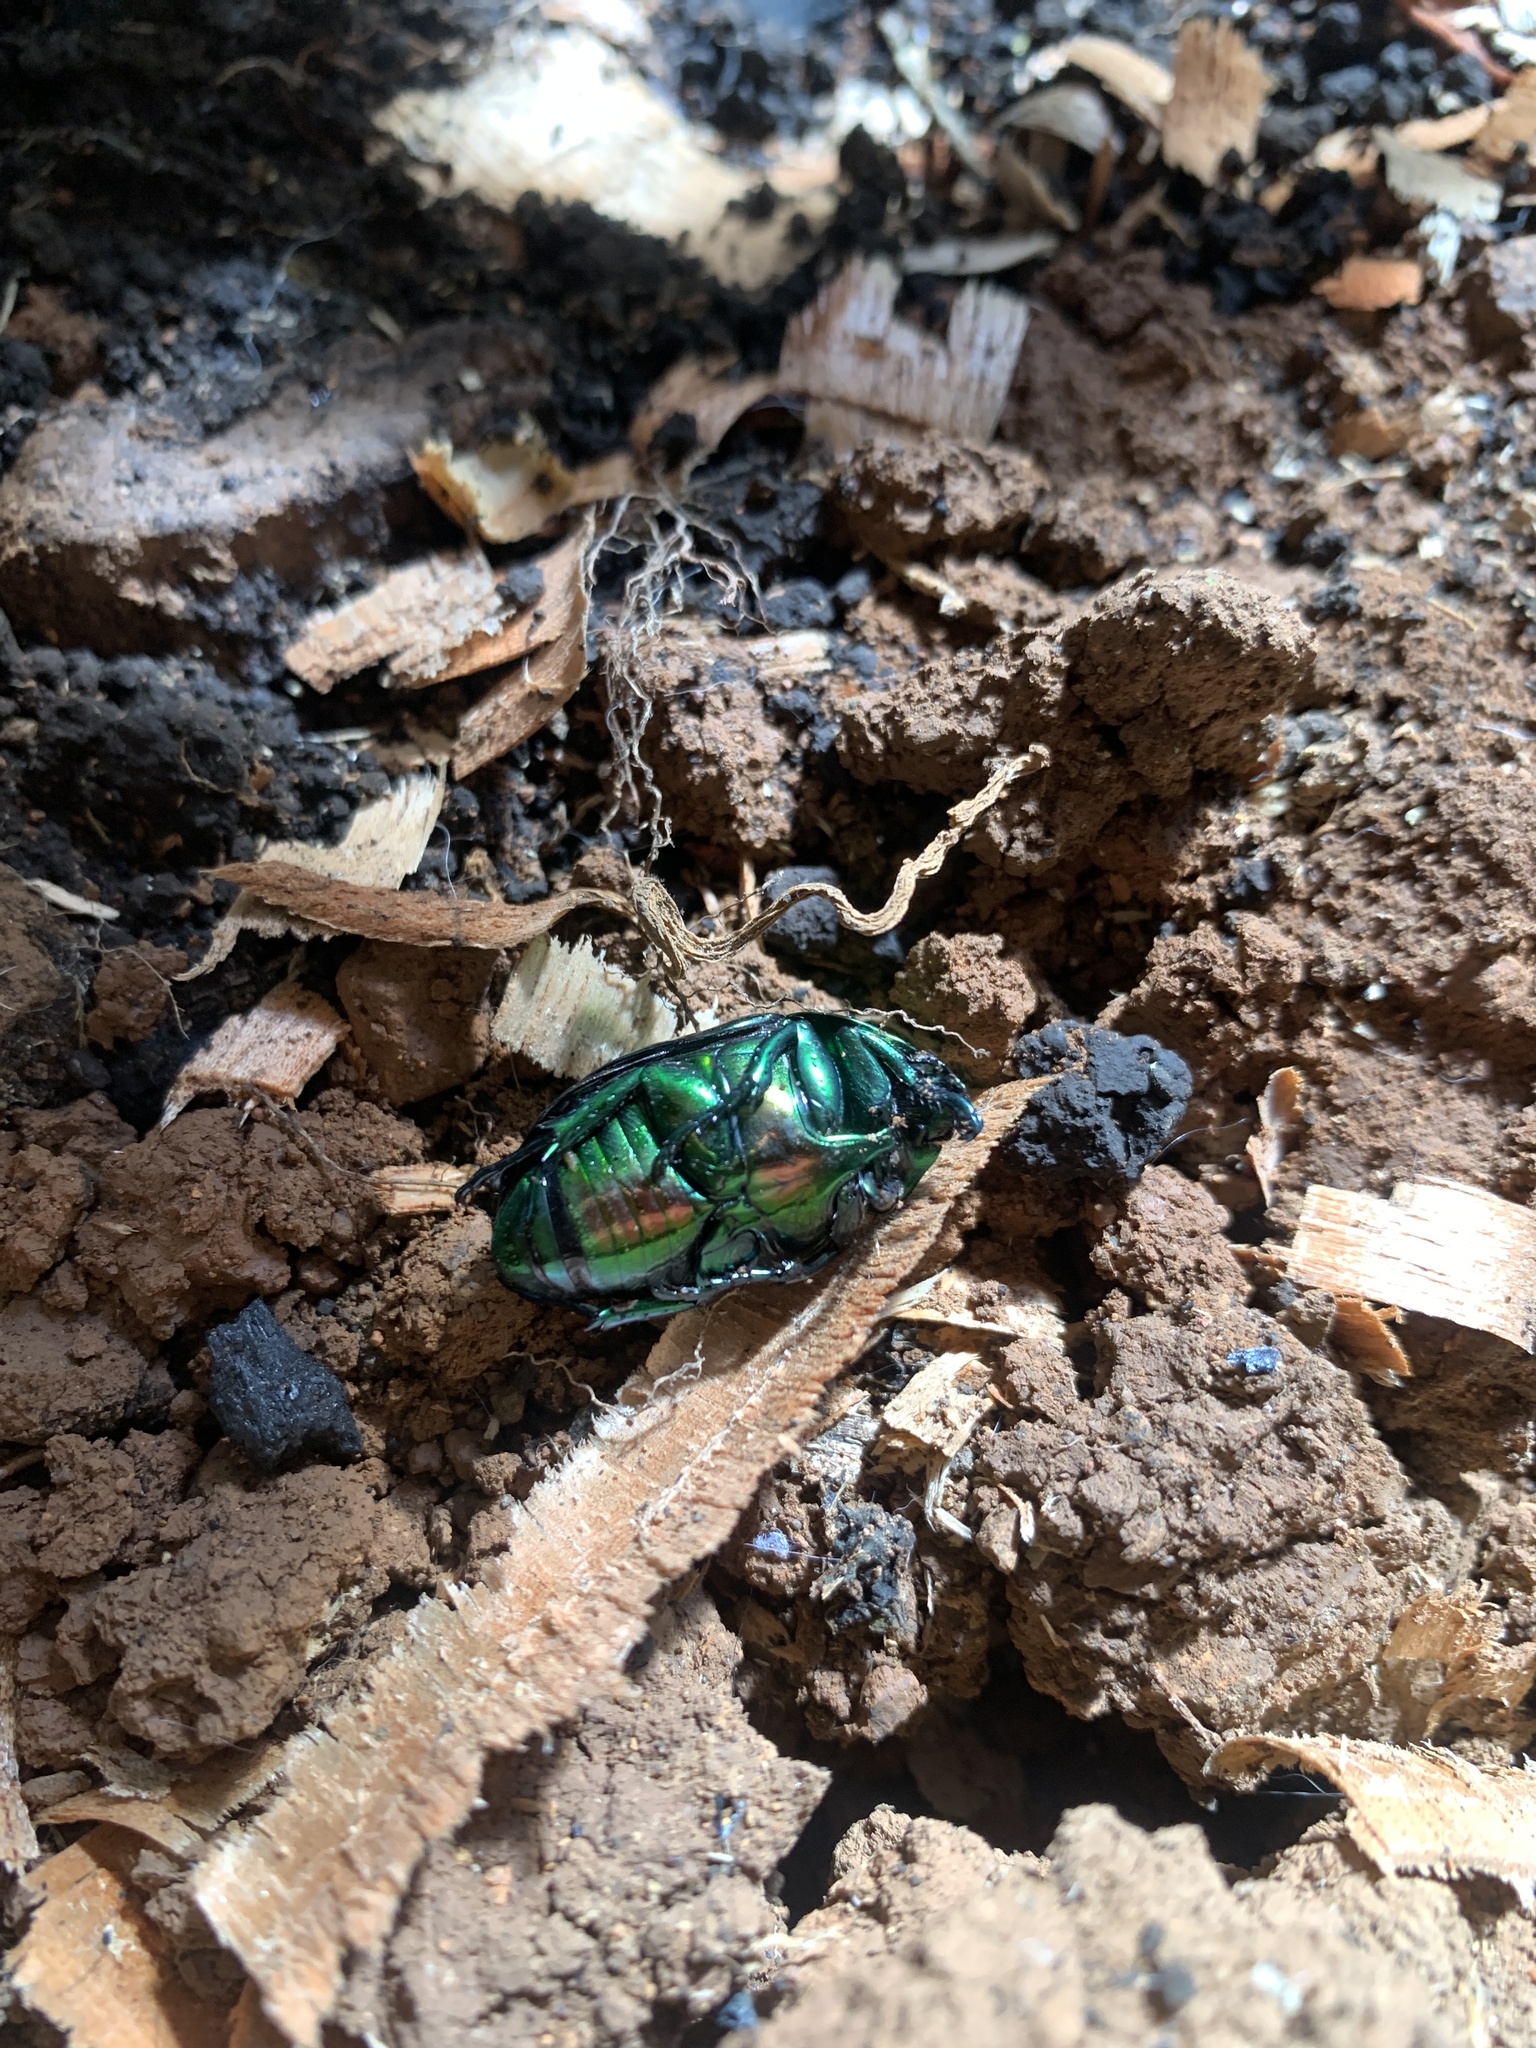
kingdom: Animalia
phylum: Arthropoda
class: Insecta
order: Coleoptera
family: Scarabaeidae
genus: Macraspis
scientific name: Macraspis chrysis
